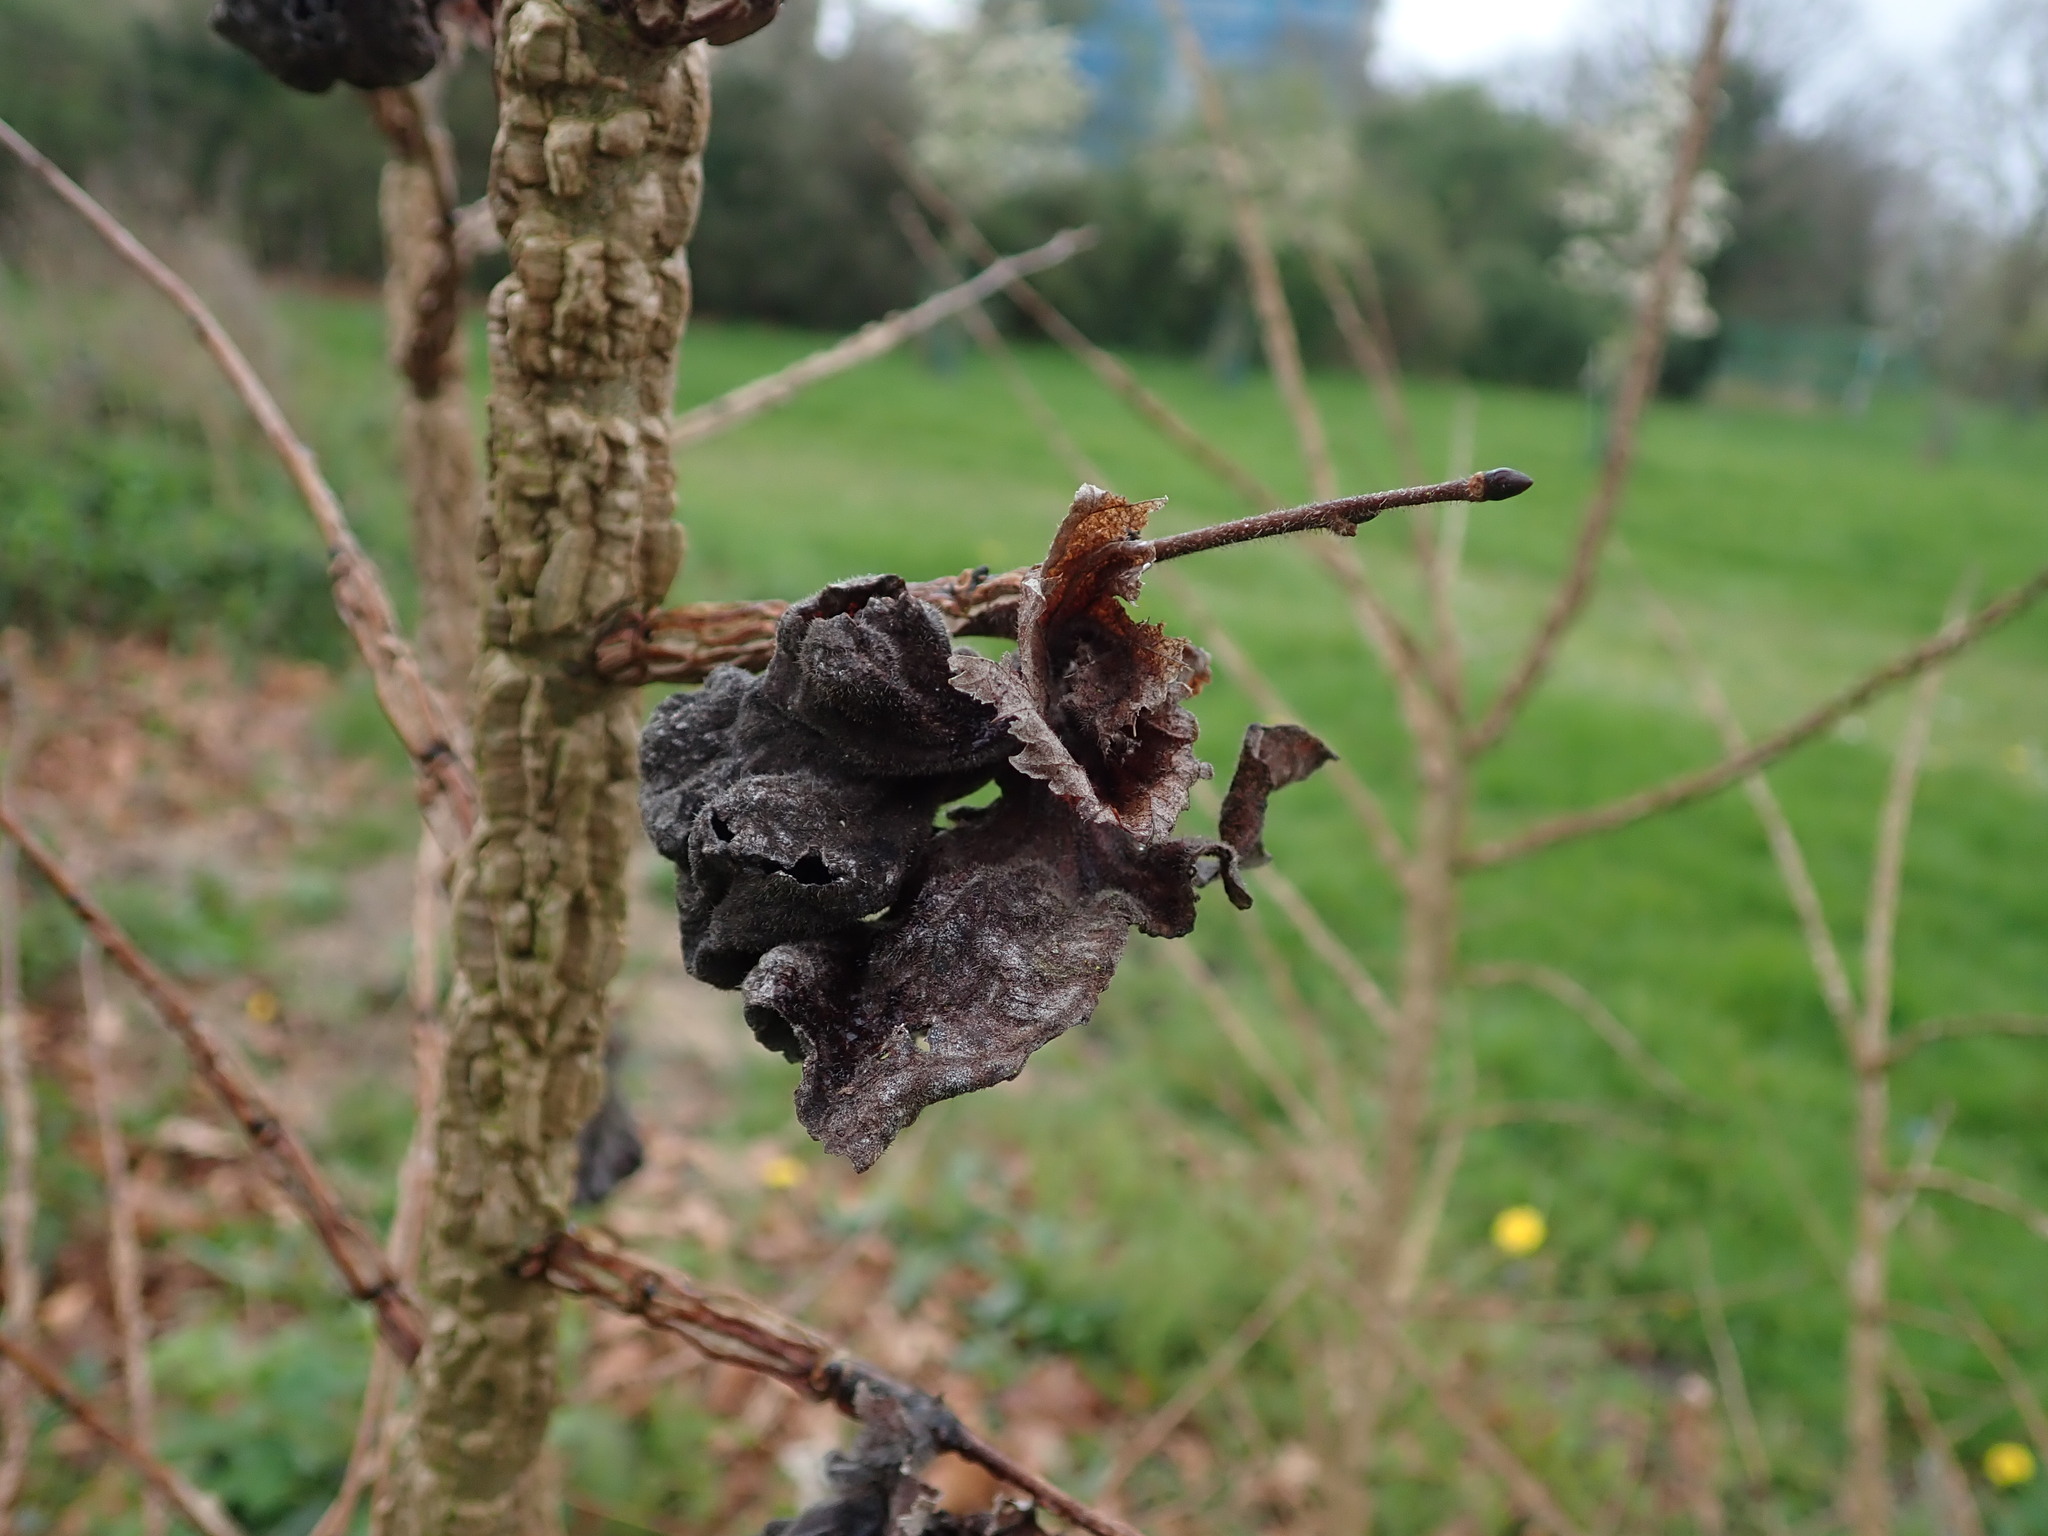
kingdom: Animalia
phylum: Arthropoda
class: Insecta
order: Hemiptera
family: Aphididae
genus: Eriosoma
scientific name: Eriosoma lanuginosum
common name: Aphid
